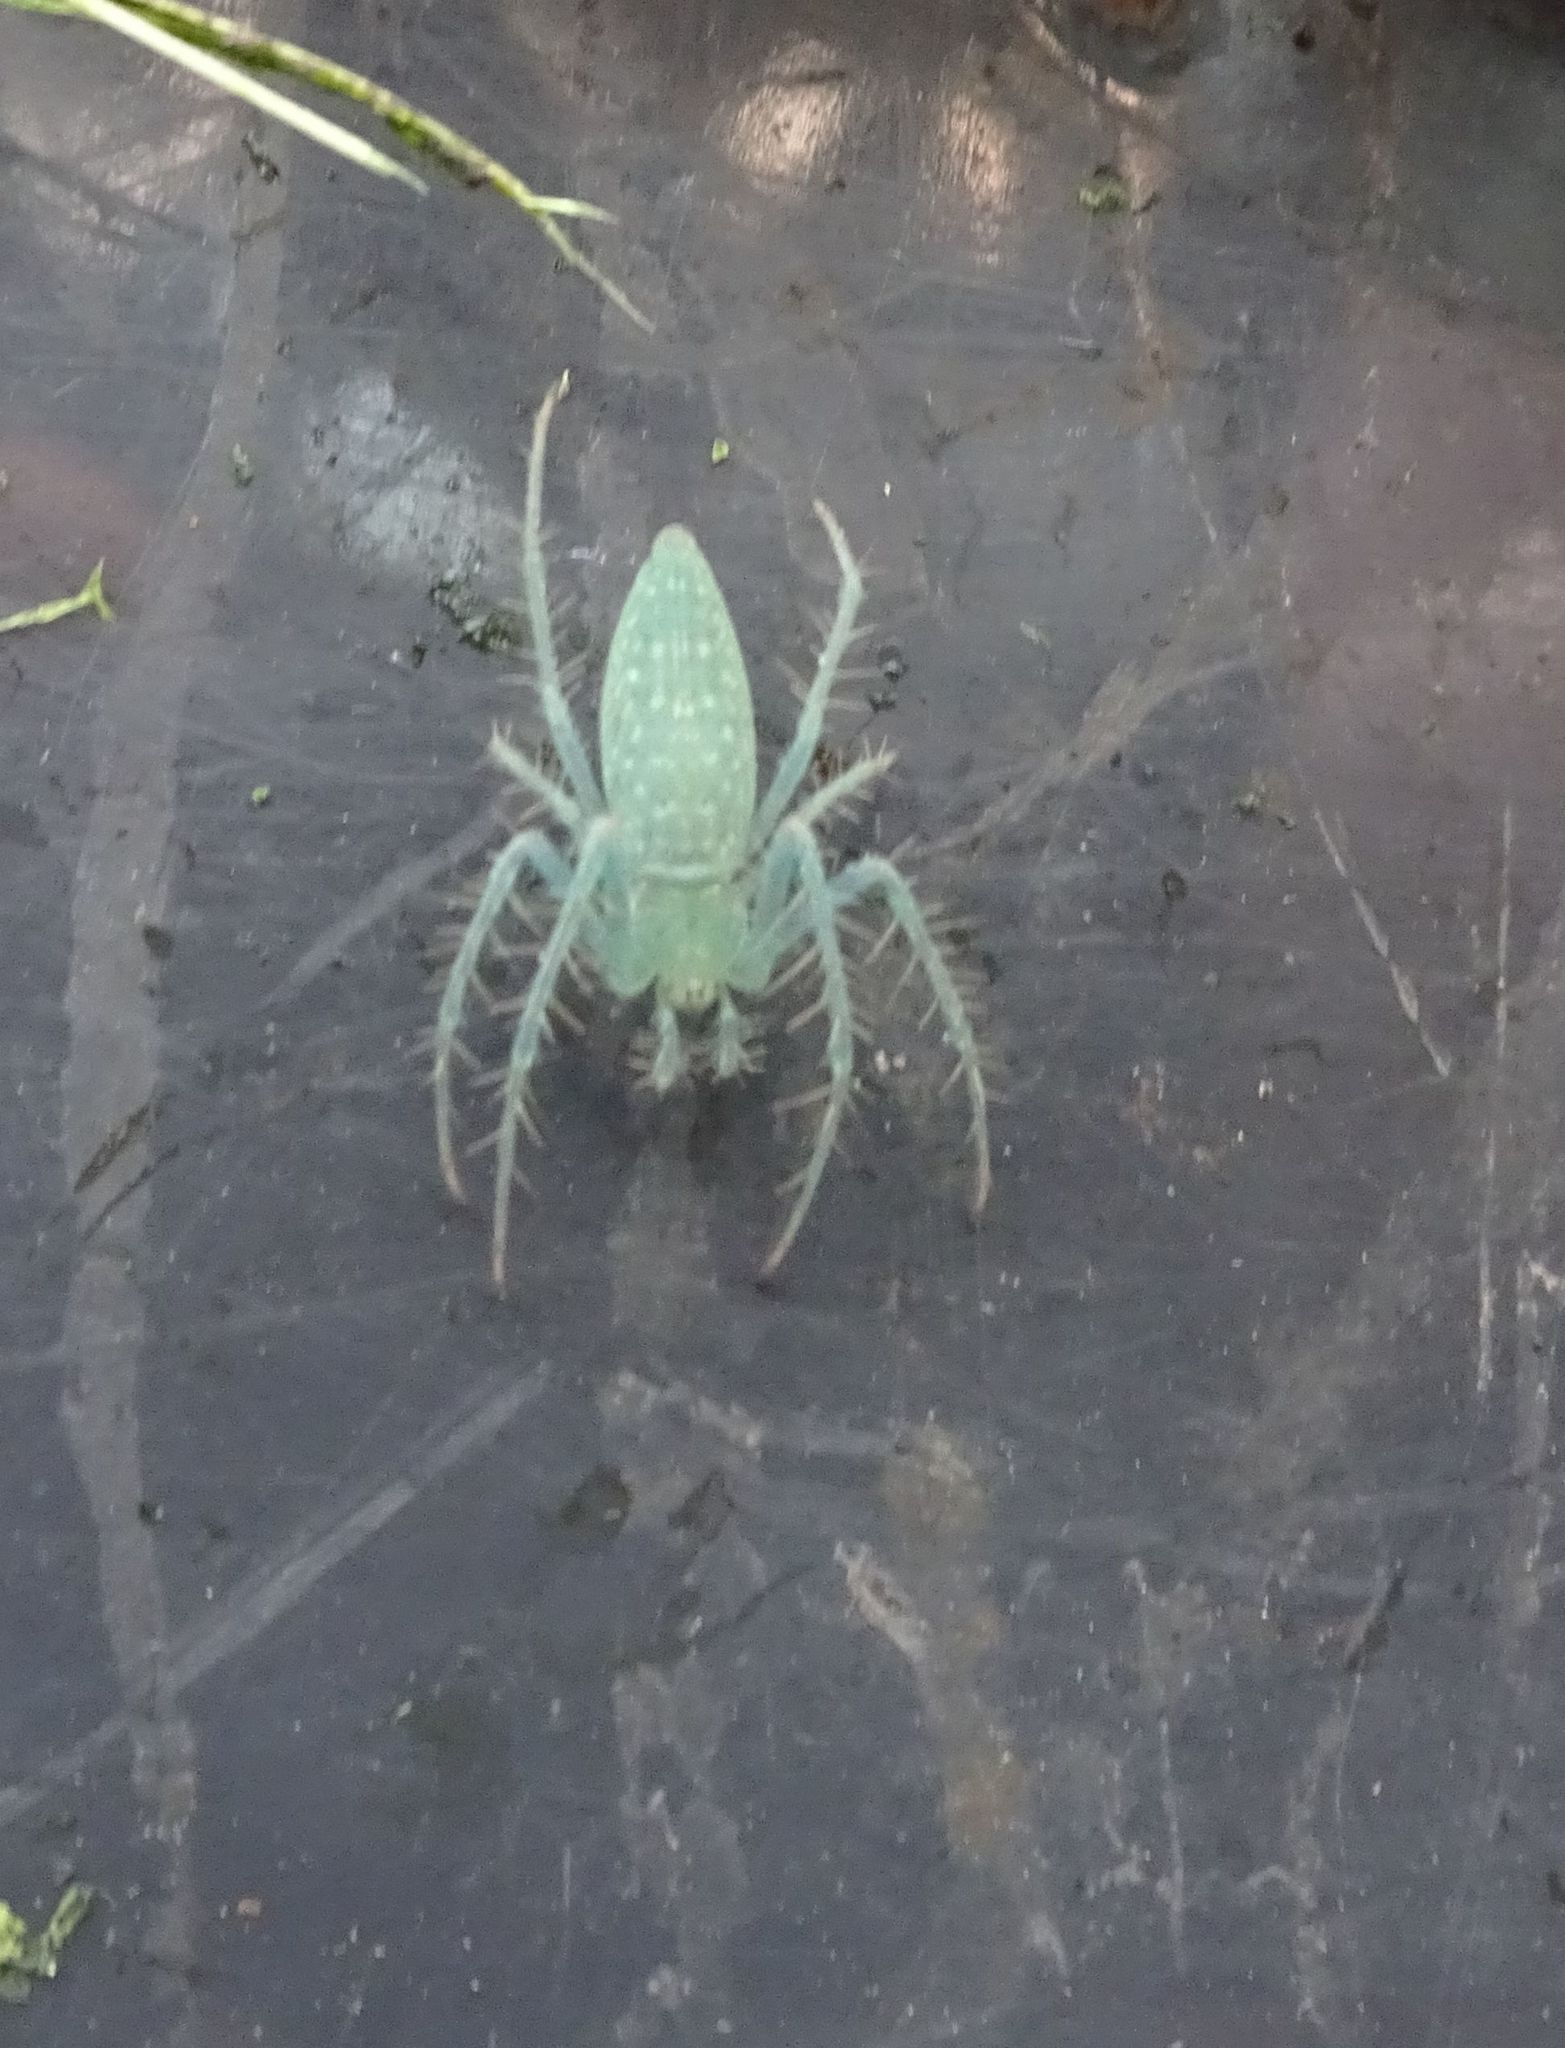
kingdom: Animalia
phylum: Arthropoda
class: Arachnida
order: Araneae
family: Araneidae
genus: Araneus
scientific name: Araneus talipedatus
